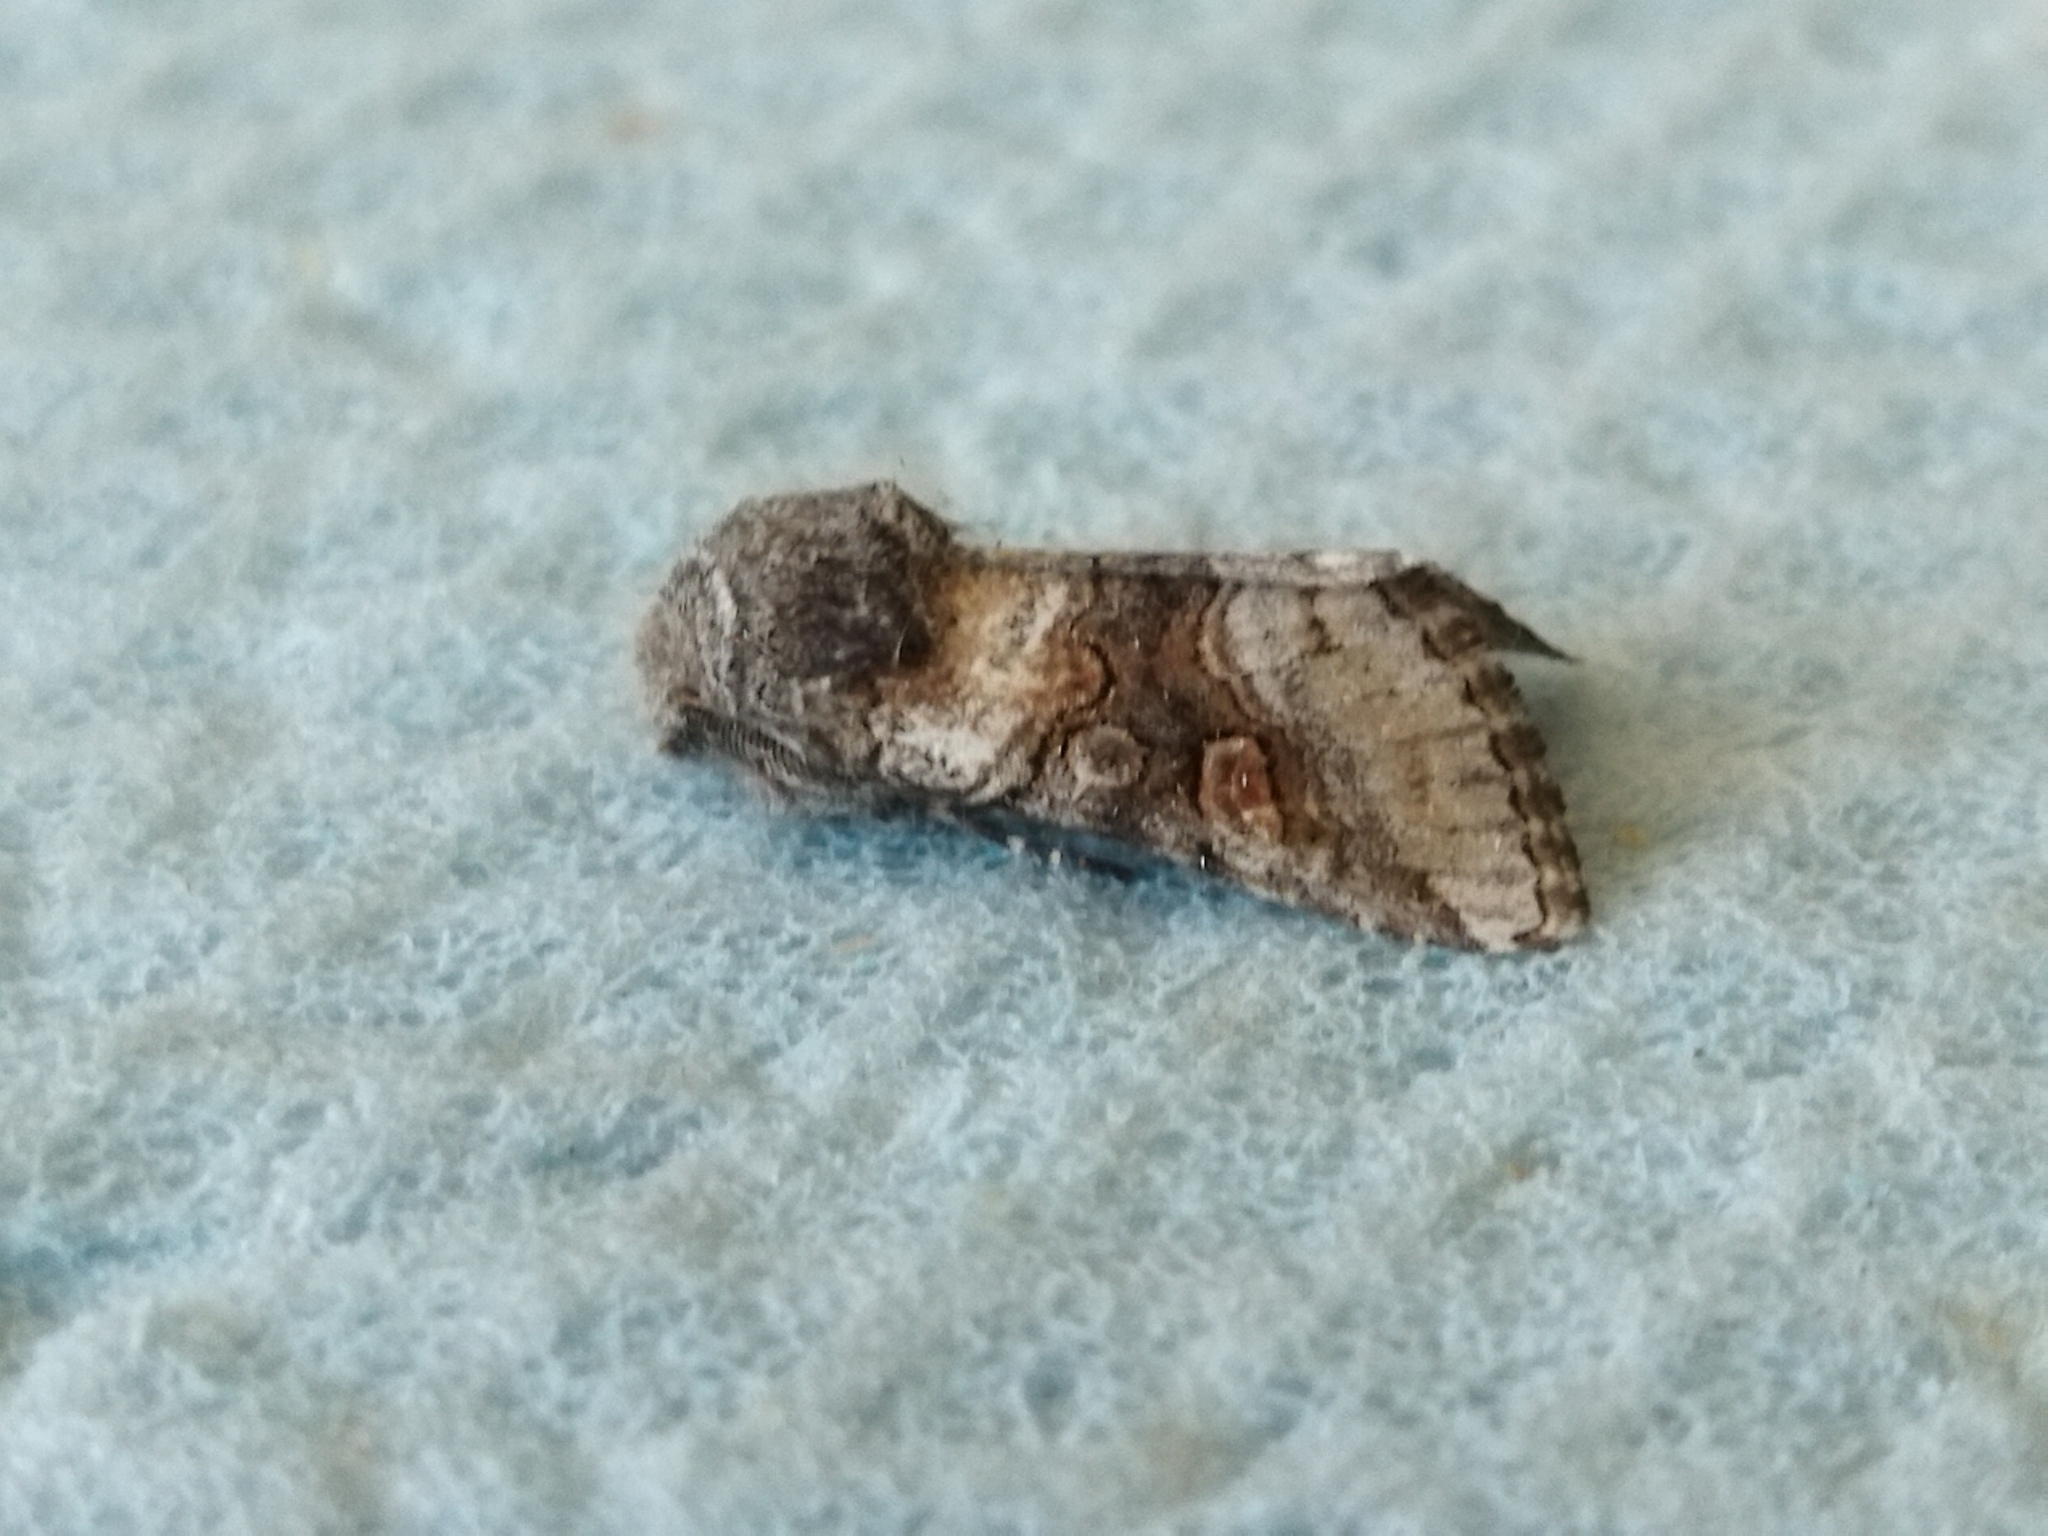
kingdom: Animalia
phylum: Arthropoda
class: Insecta
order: Lepidoptera
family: Noctuidae
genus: Cleoceris
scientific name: Cleoceris scoriacea
